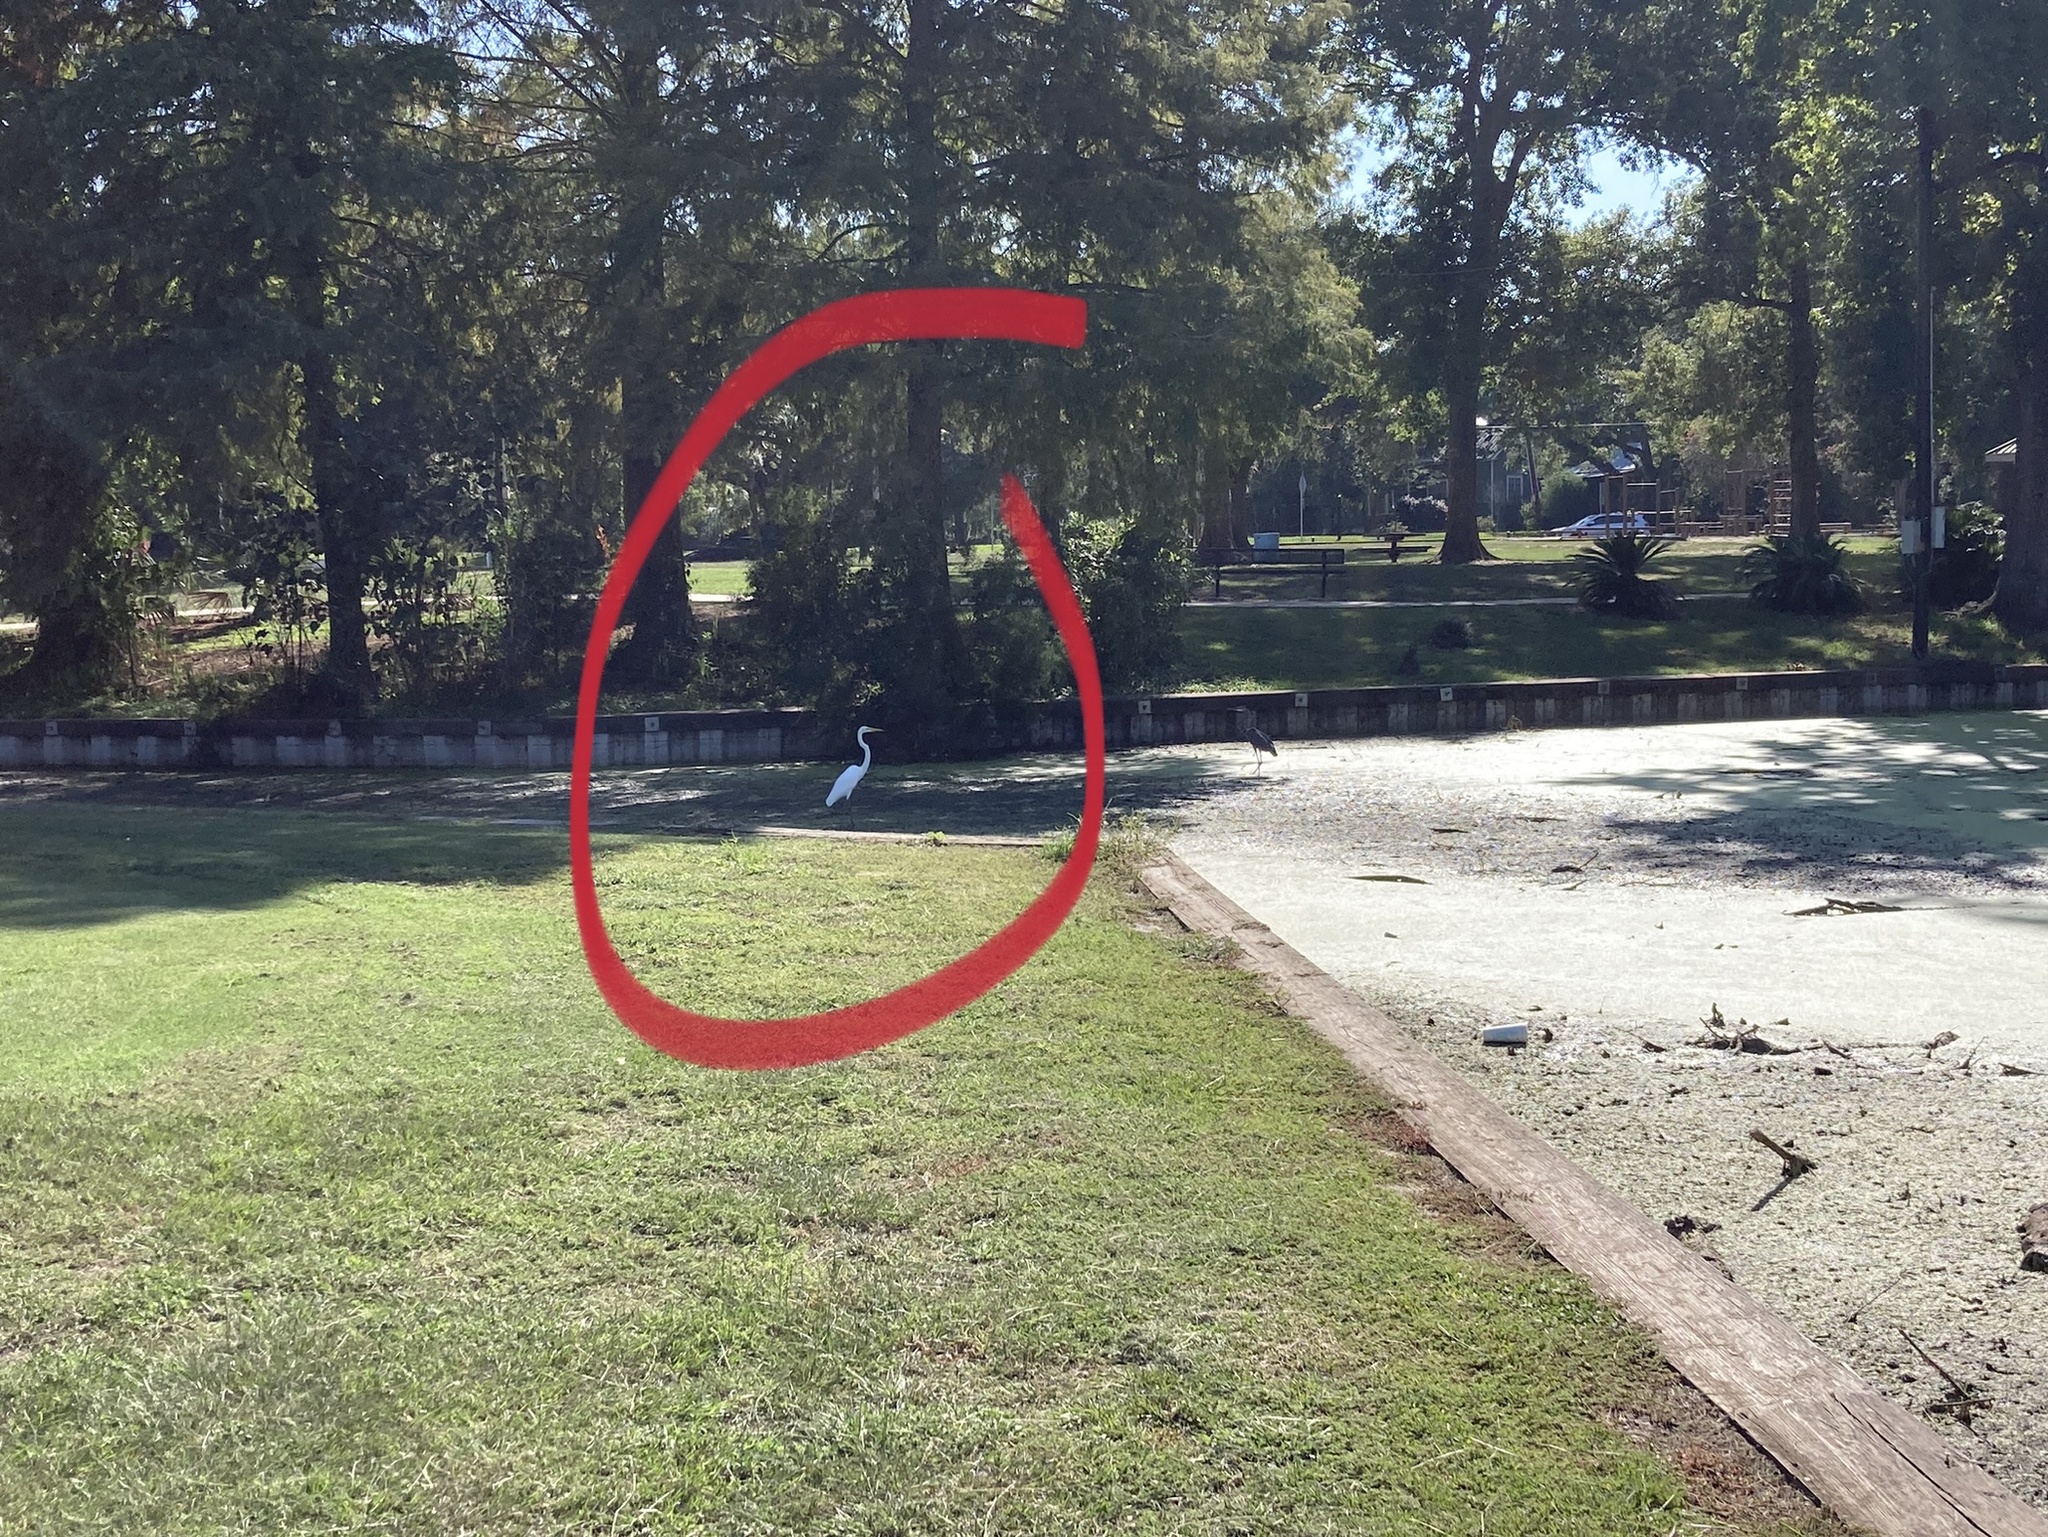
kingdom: Animalia
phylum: Chordata
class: Aves
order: Pelecaniformes
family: Ardeidae
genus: Ardea
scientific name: Ardea alba
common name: Great egret
